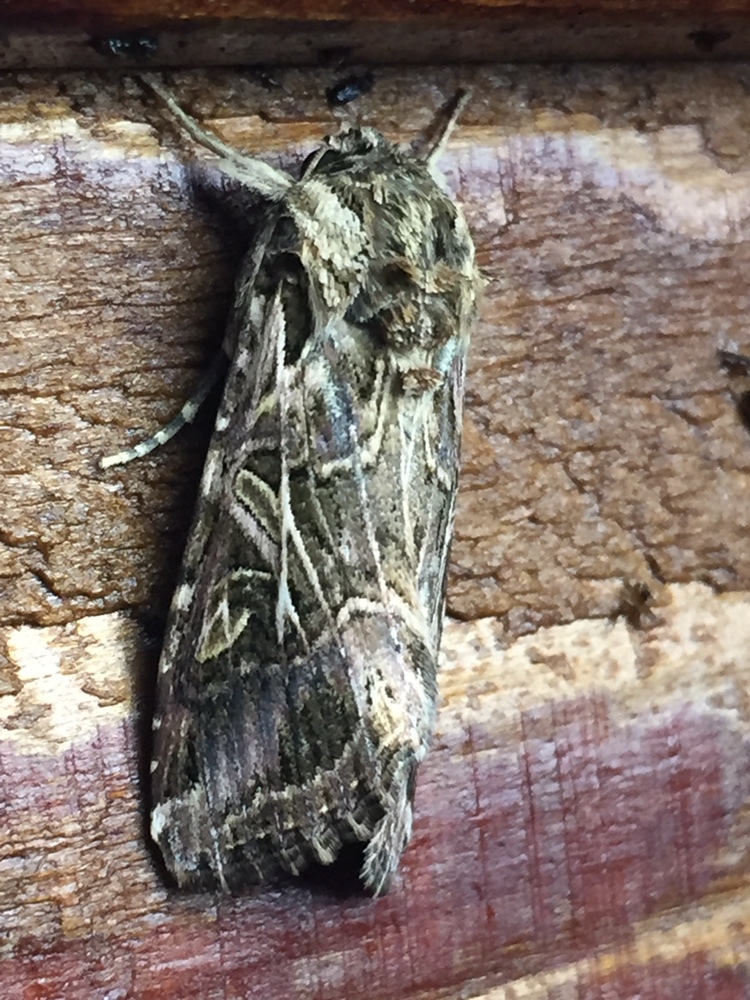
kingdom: Animalia
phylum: Arthropoda
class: Insecta
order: Lepidoptera
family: Noctuidae
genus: Spodoptera
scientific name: Spodoptera litura
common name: Asian cotton leafworm
